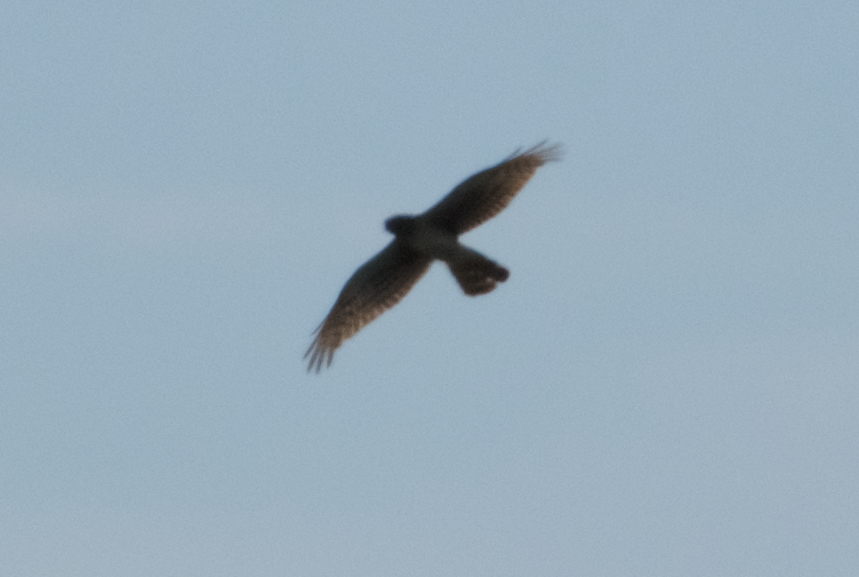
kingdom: Animalia
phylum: Chordata
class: Aves
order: Accipitriformes
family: Accipitridae
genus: Circus
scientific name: Circus cyaneus
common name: Hen harrier
